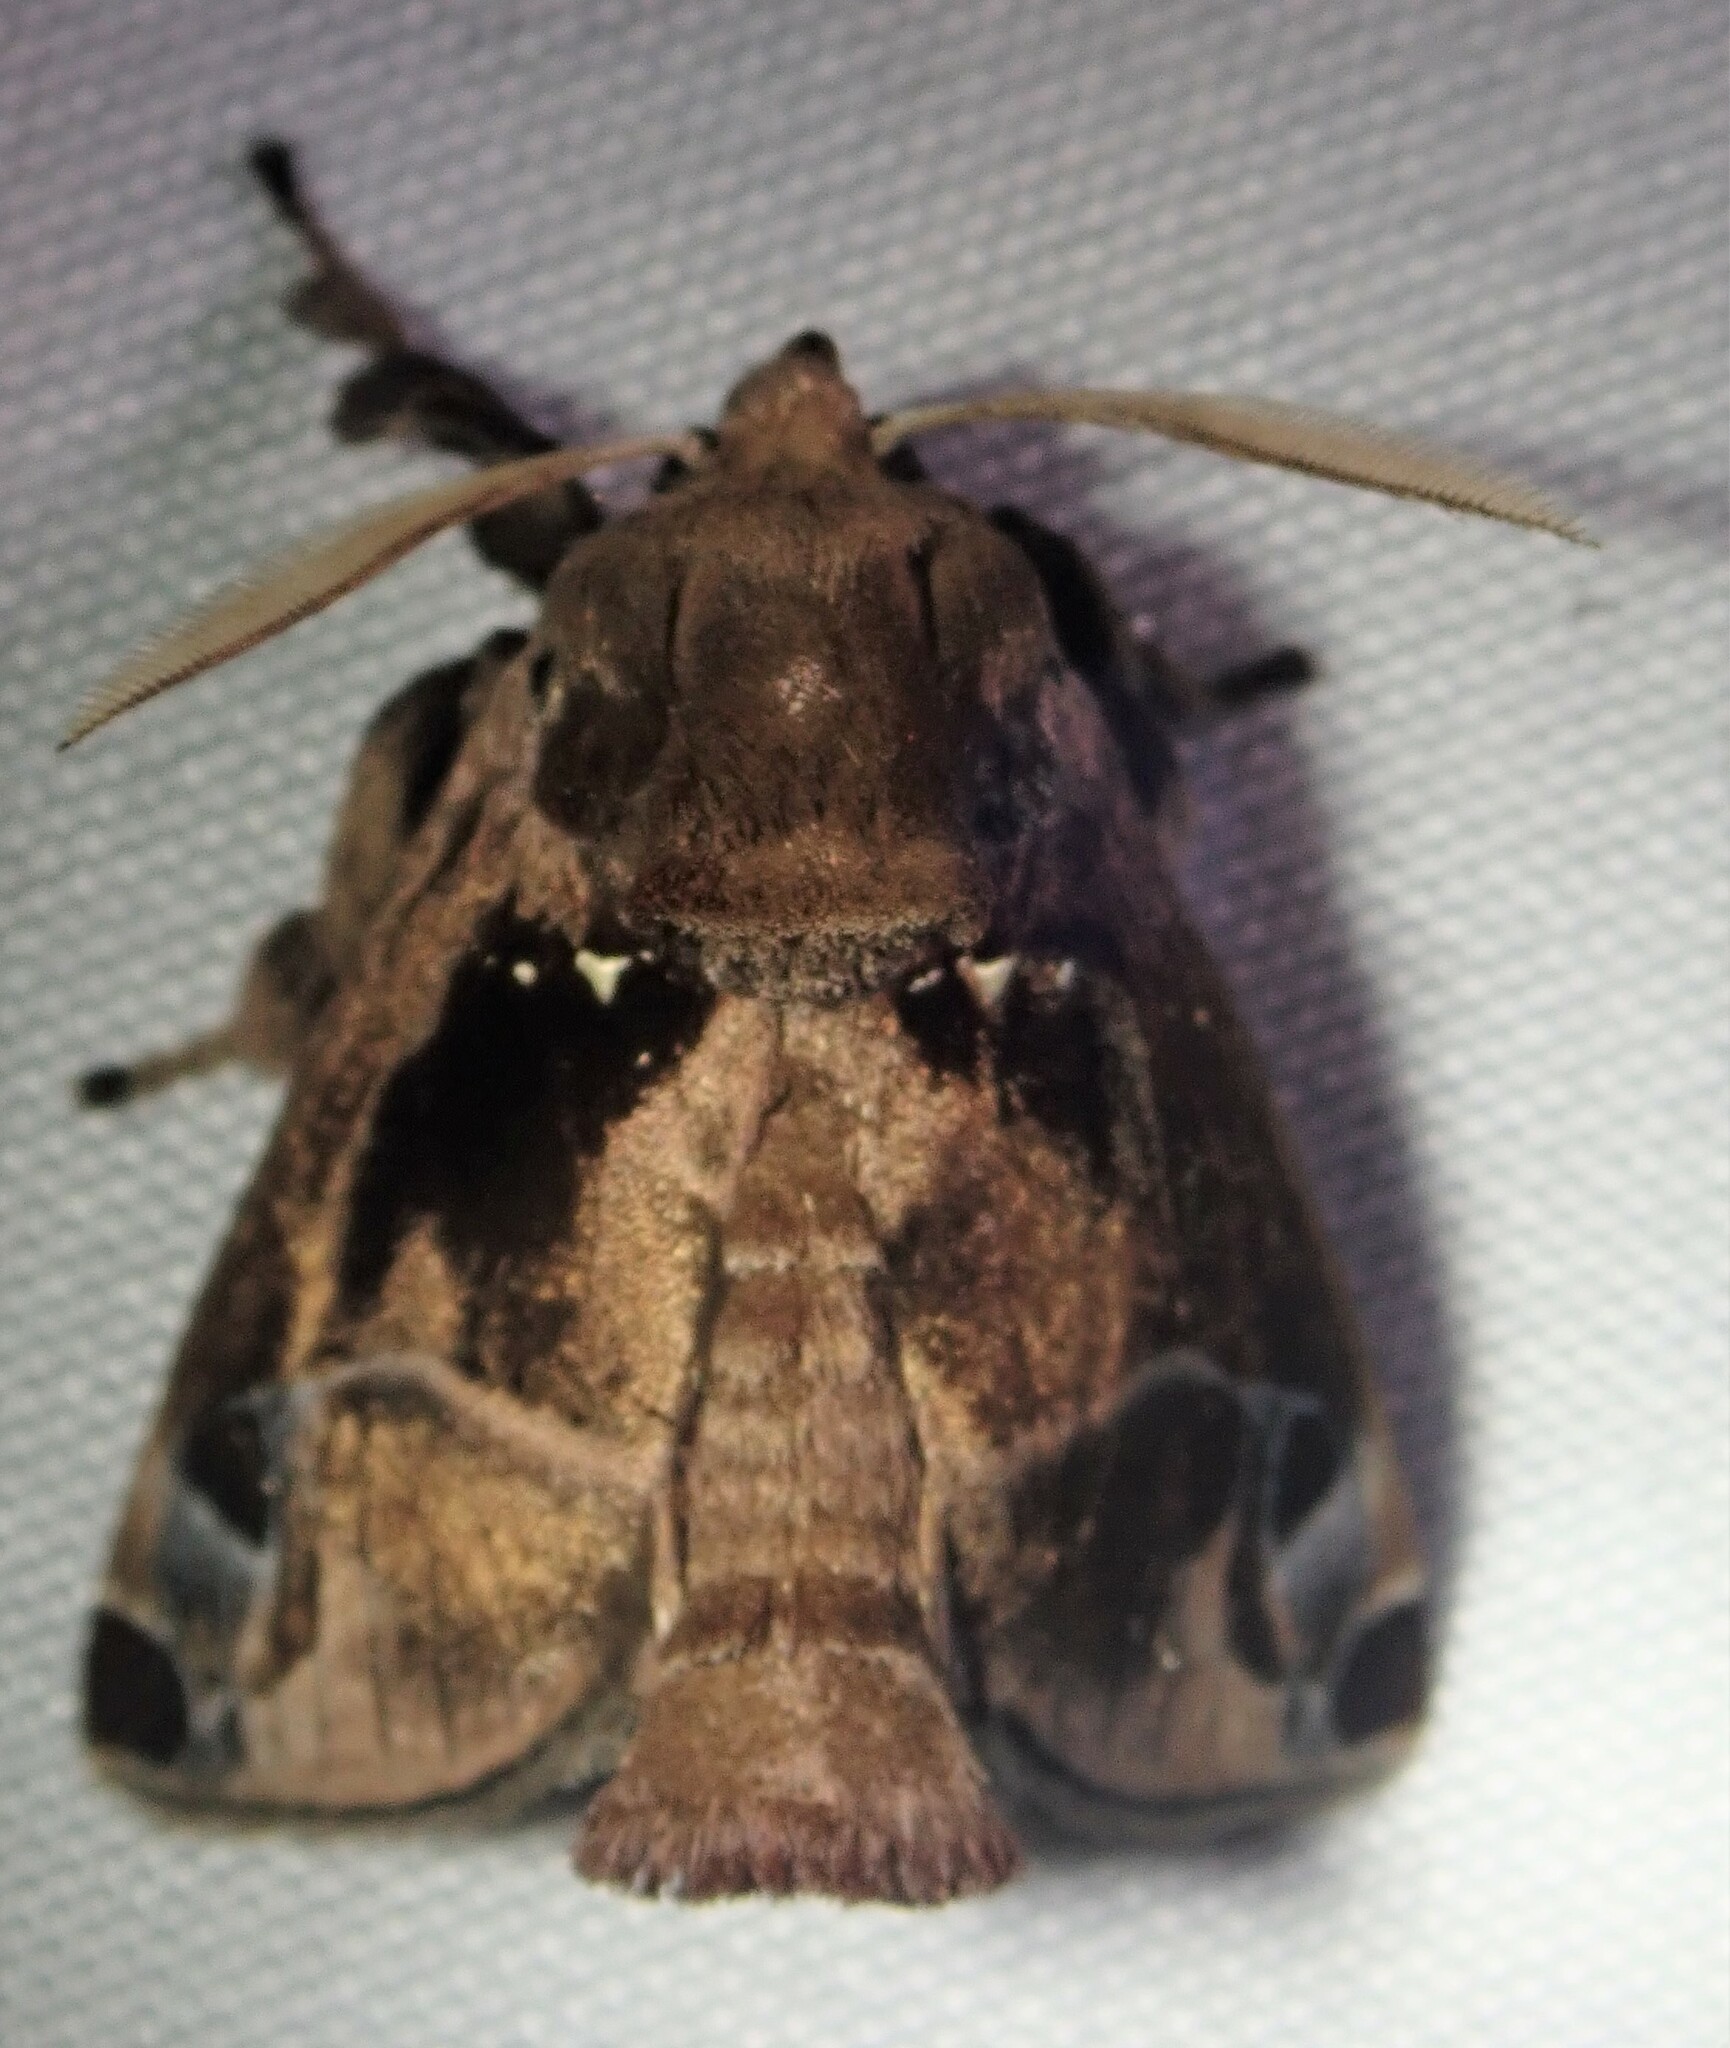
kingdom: Animalia
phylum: Arthropoda
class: Insecta
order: Lepidoptera
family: Limacodidae
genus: Semyra
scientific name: Semyra irena
